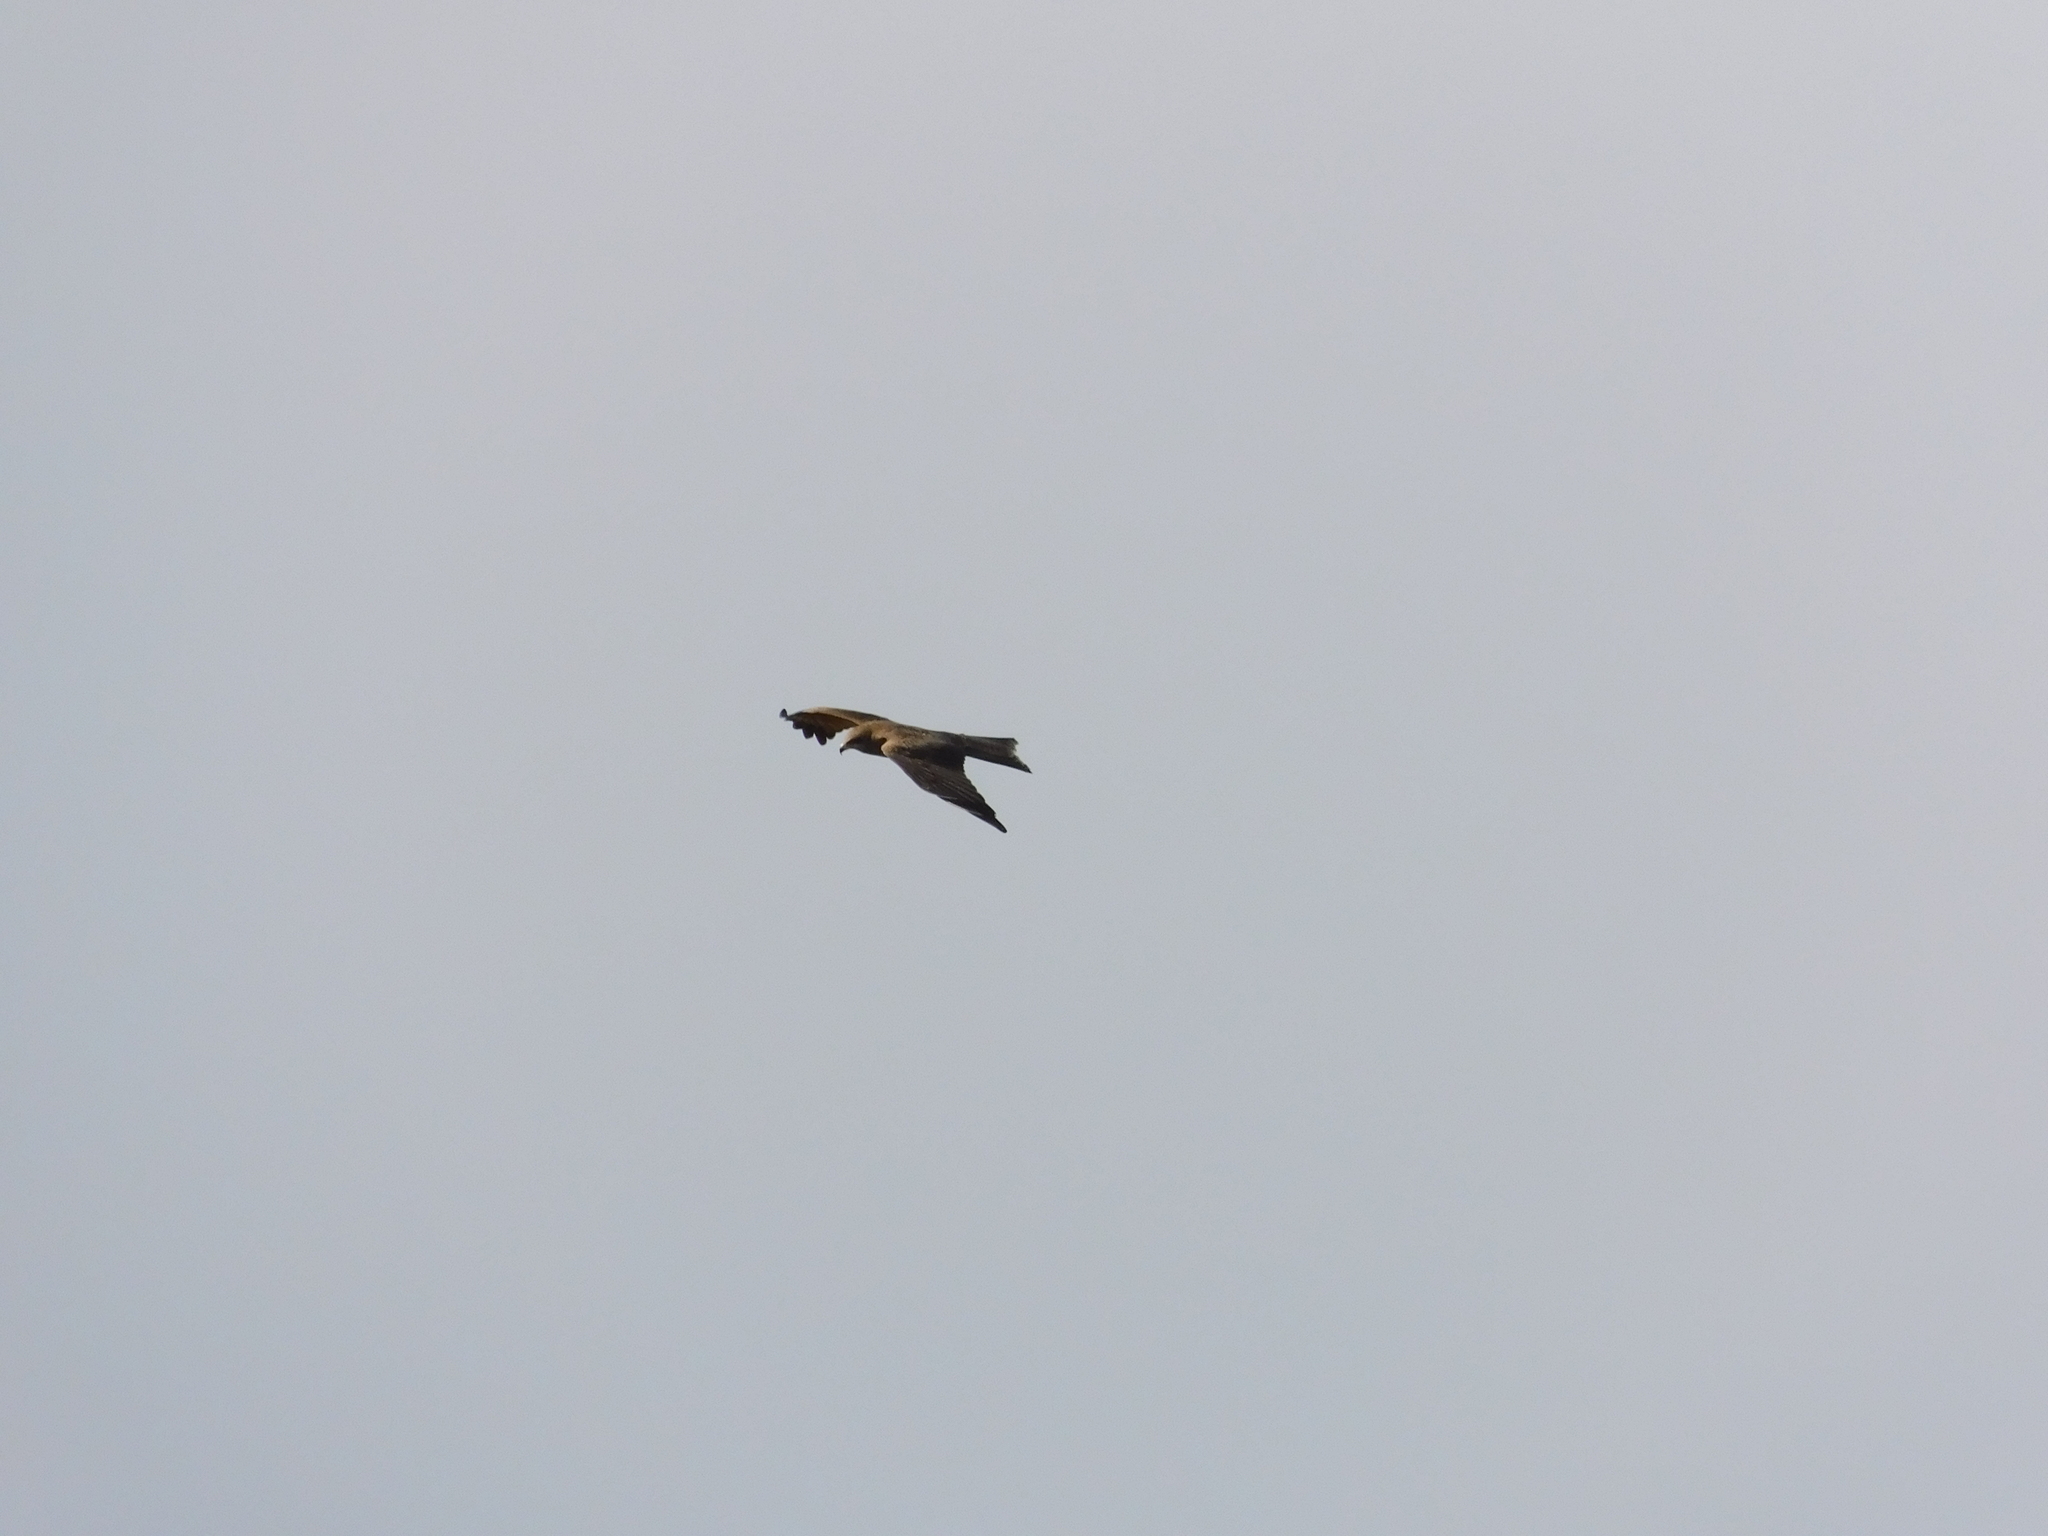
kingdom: Animalia
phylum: Chordata
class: Aves
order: Accipitriformes
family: Accipitridae
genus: Milvus
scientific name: Milvus migrans
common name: Black kite
